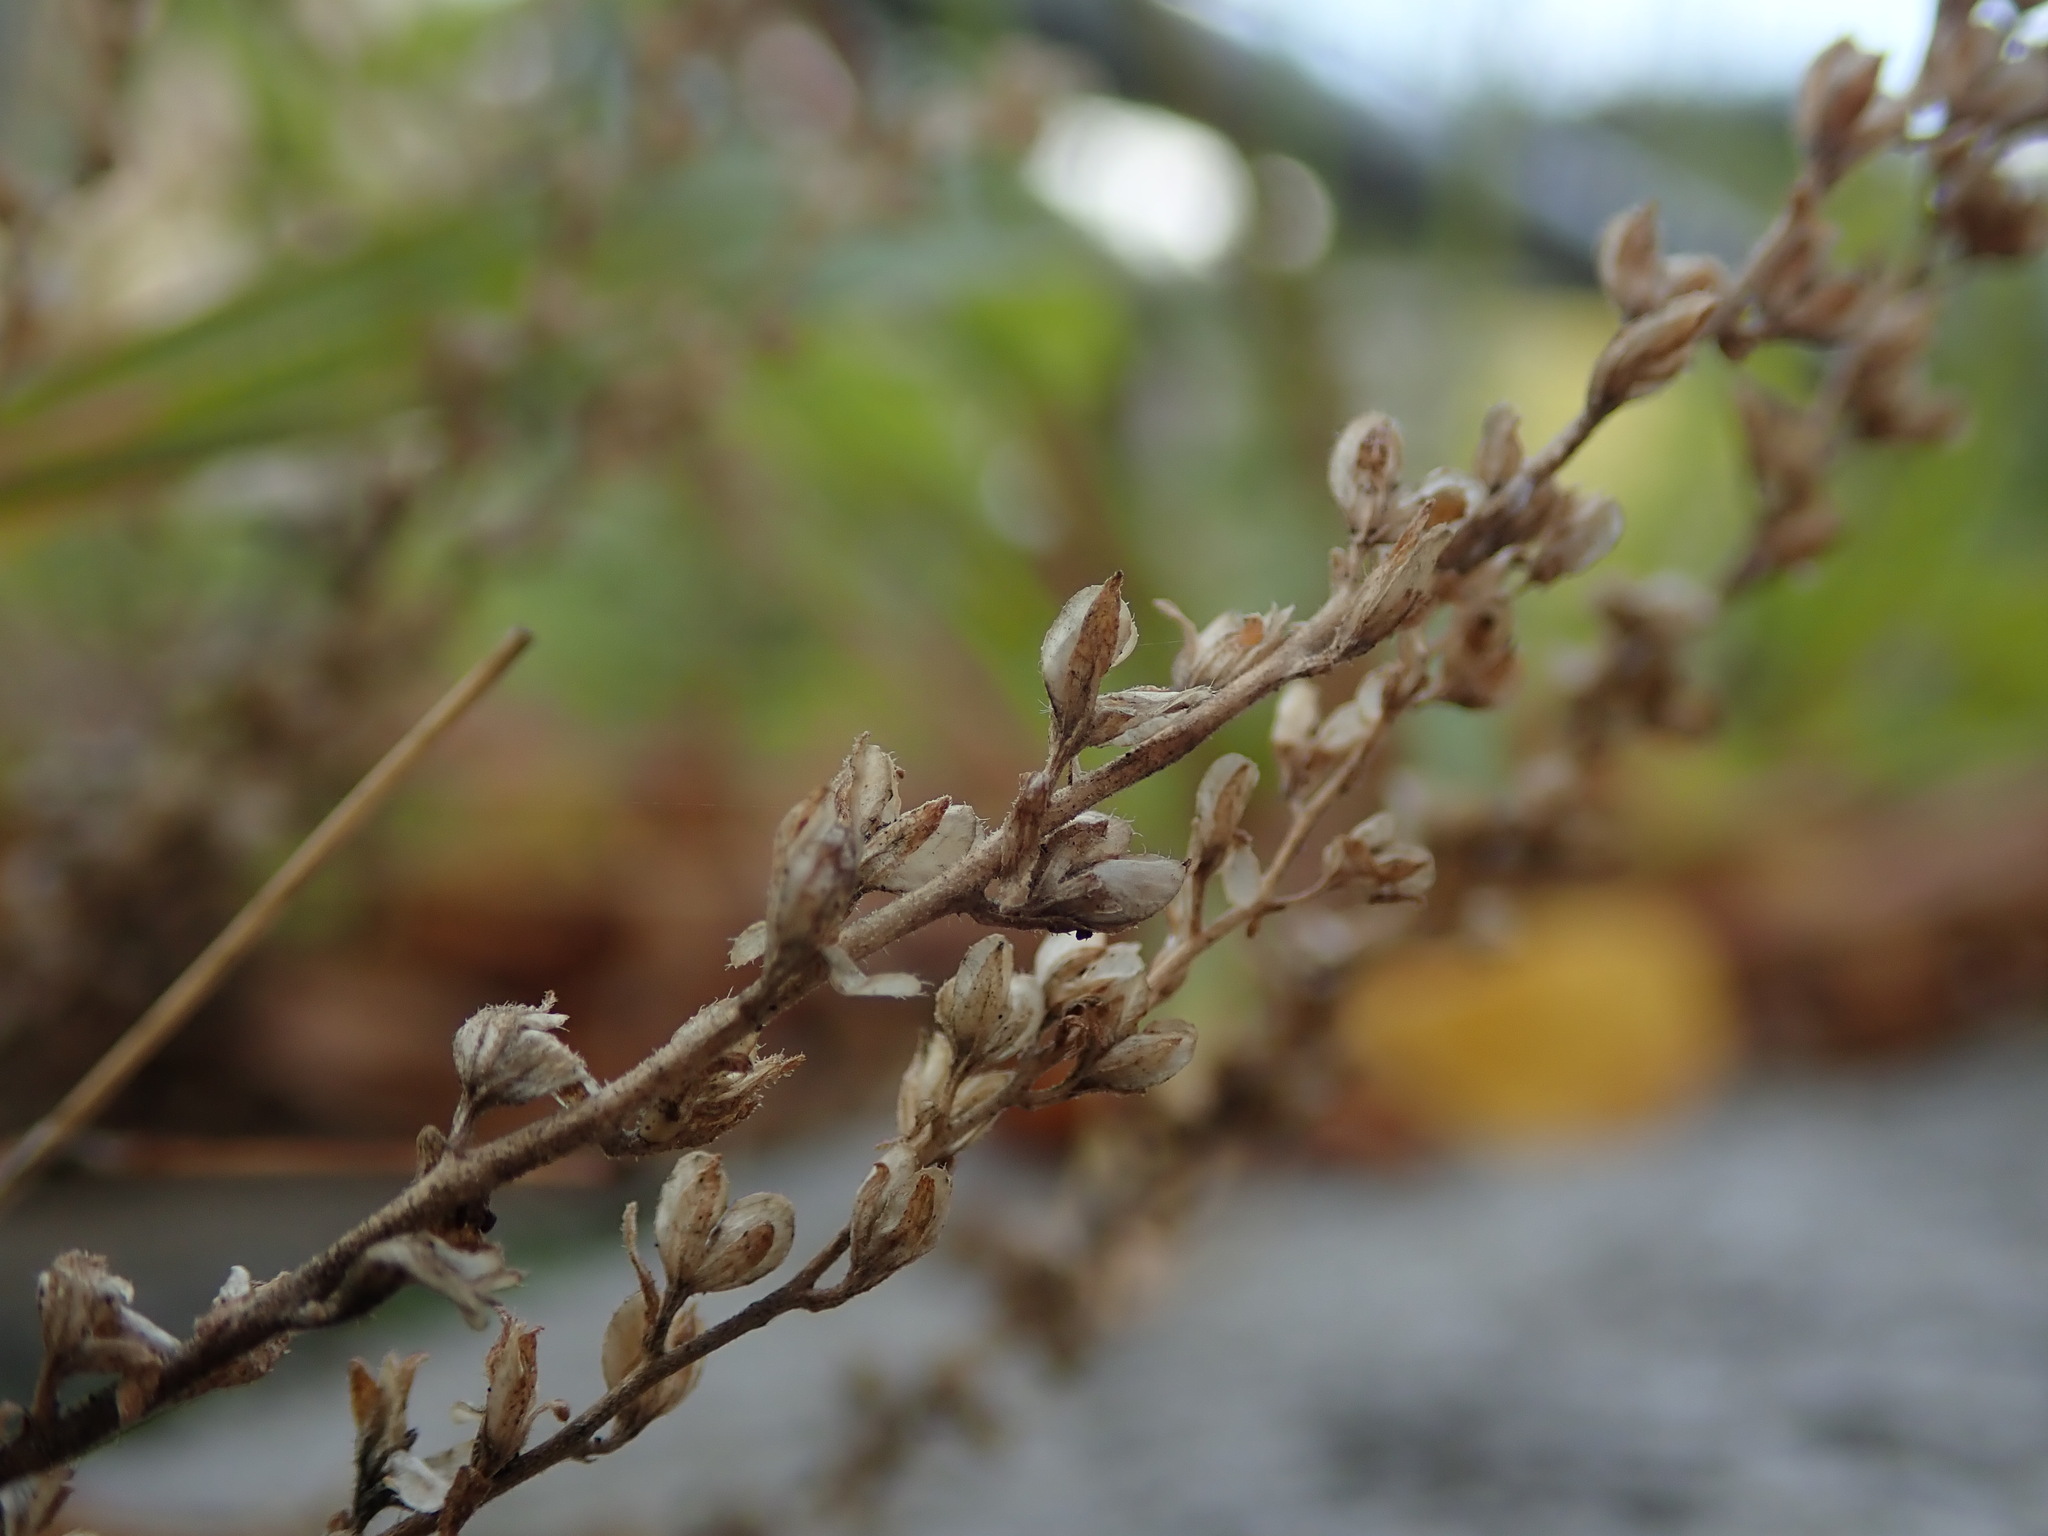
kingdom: Plantae
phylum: Tracheophyta
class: Magnoliopsida
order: Lamiales
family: Plantaginaceae
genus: Veronica
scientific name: Veronica arvensis
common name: Corn speedwell
